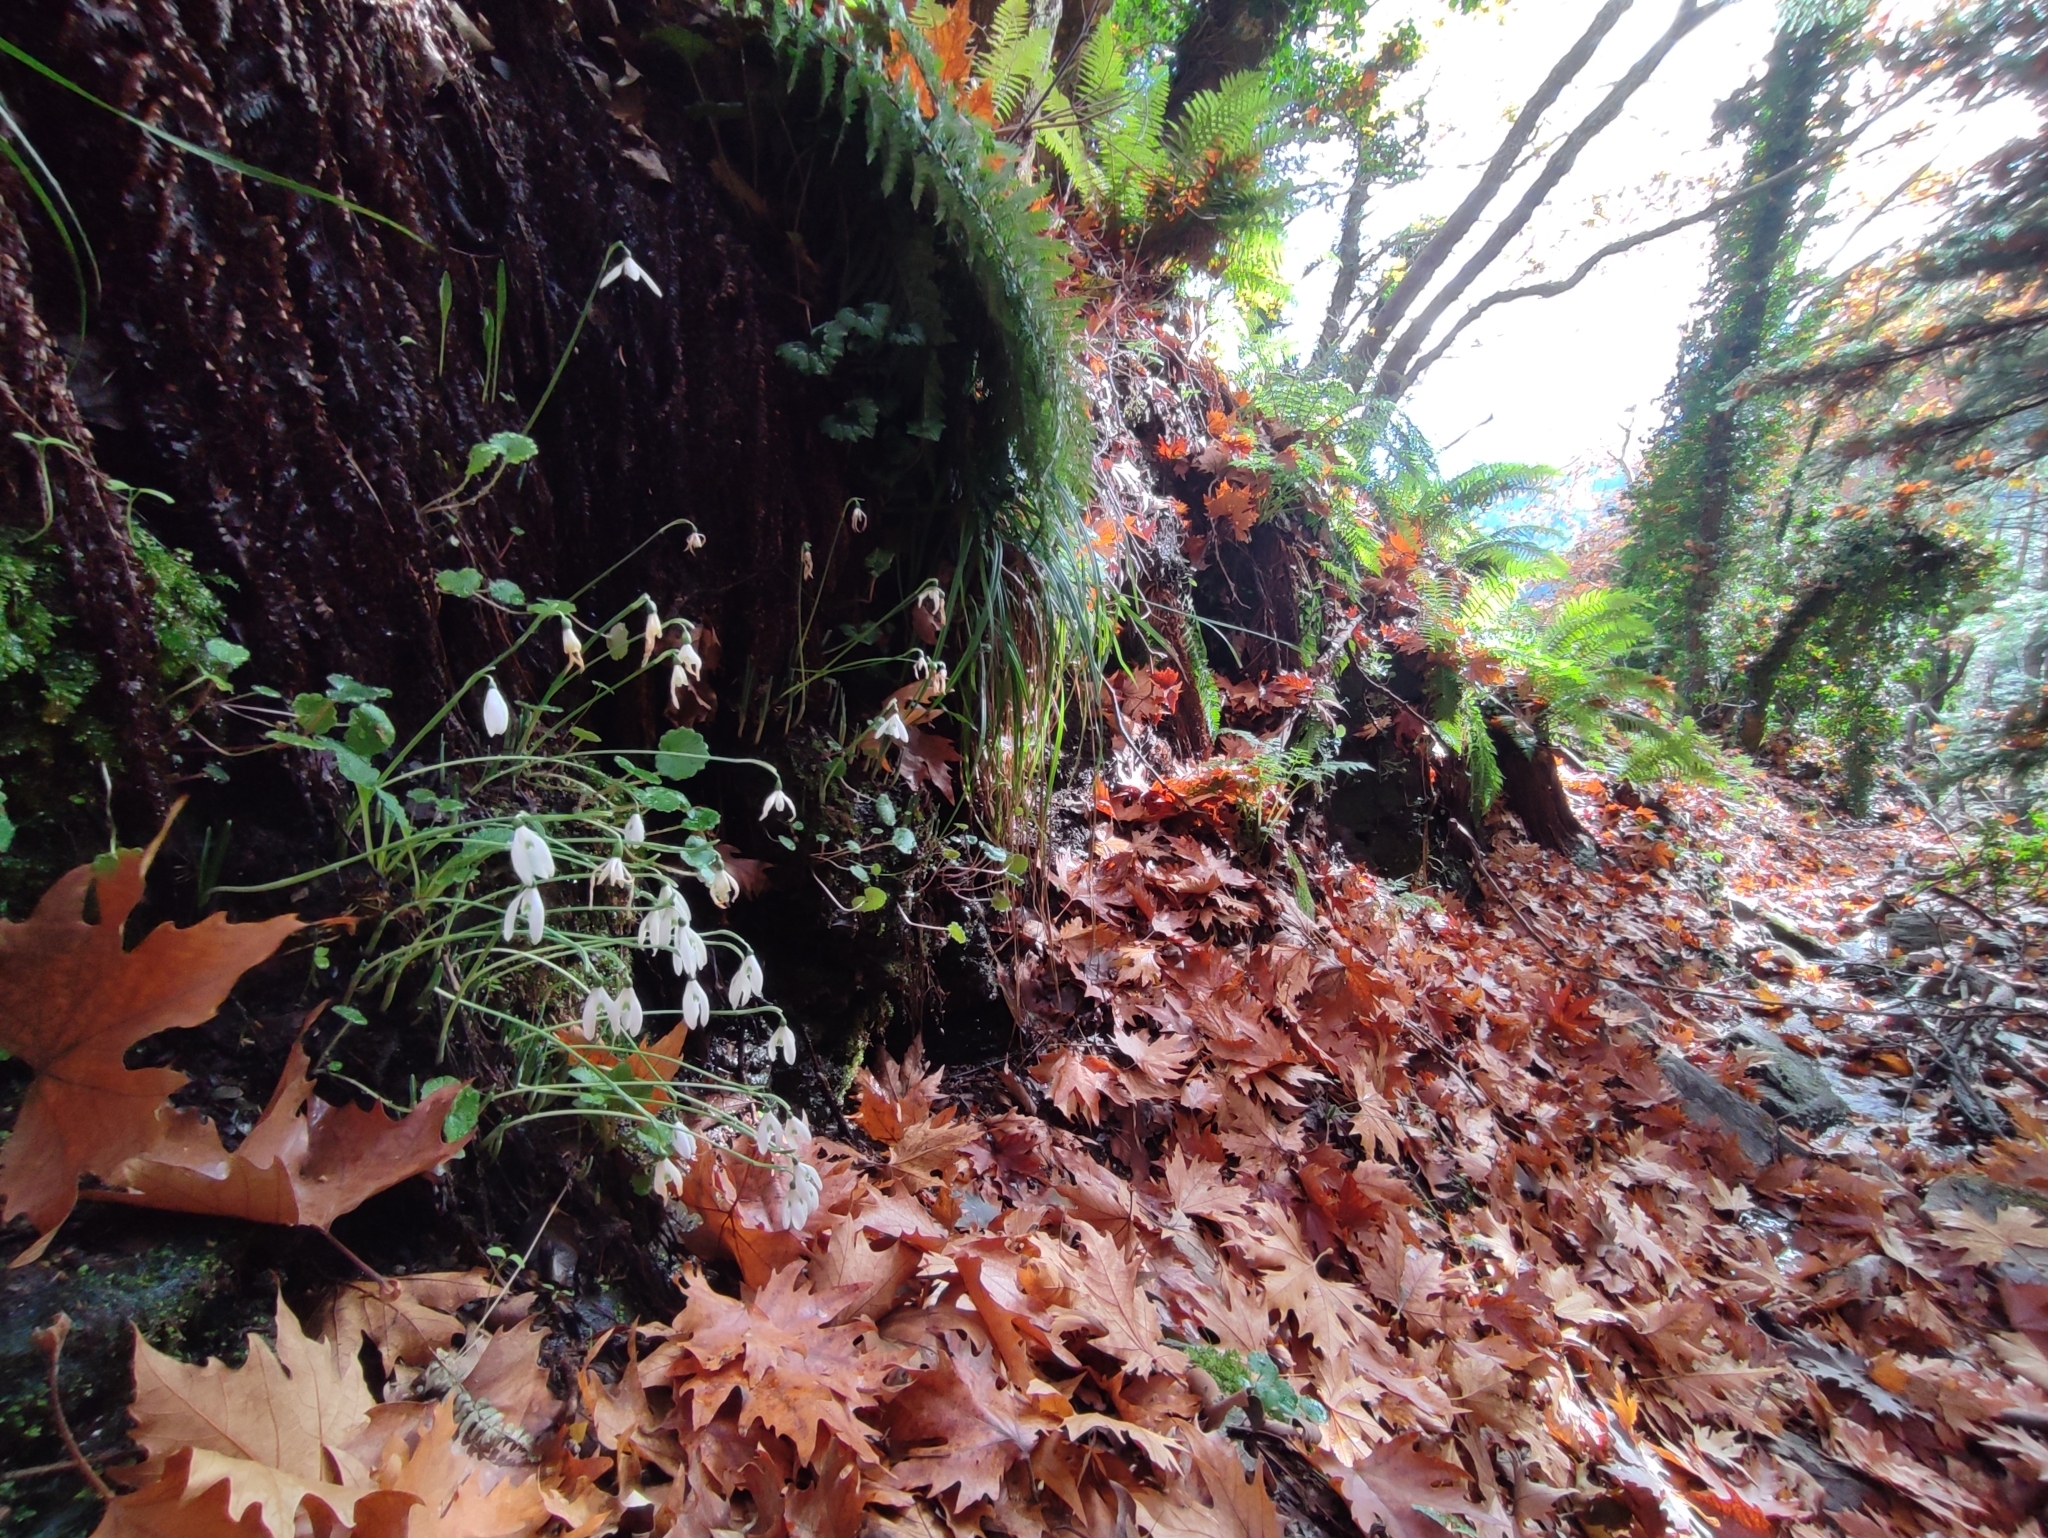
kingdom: Plantae
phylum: Tracheophyta
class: Liliopsida
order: Asparagales
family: Amaryllidaceae
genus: Galanthus
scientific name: Galanthus reginae-olgae
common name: Queen olga's snowdrop
